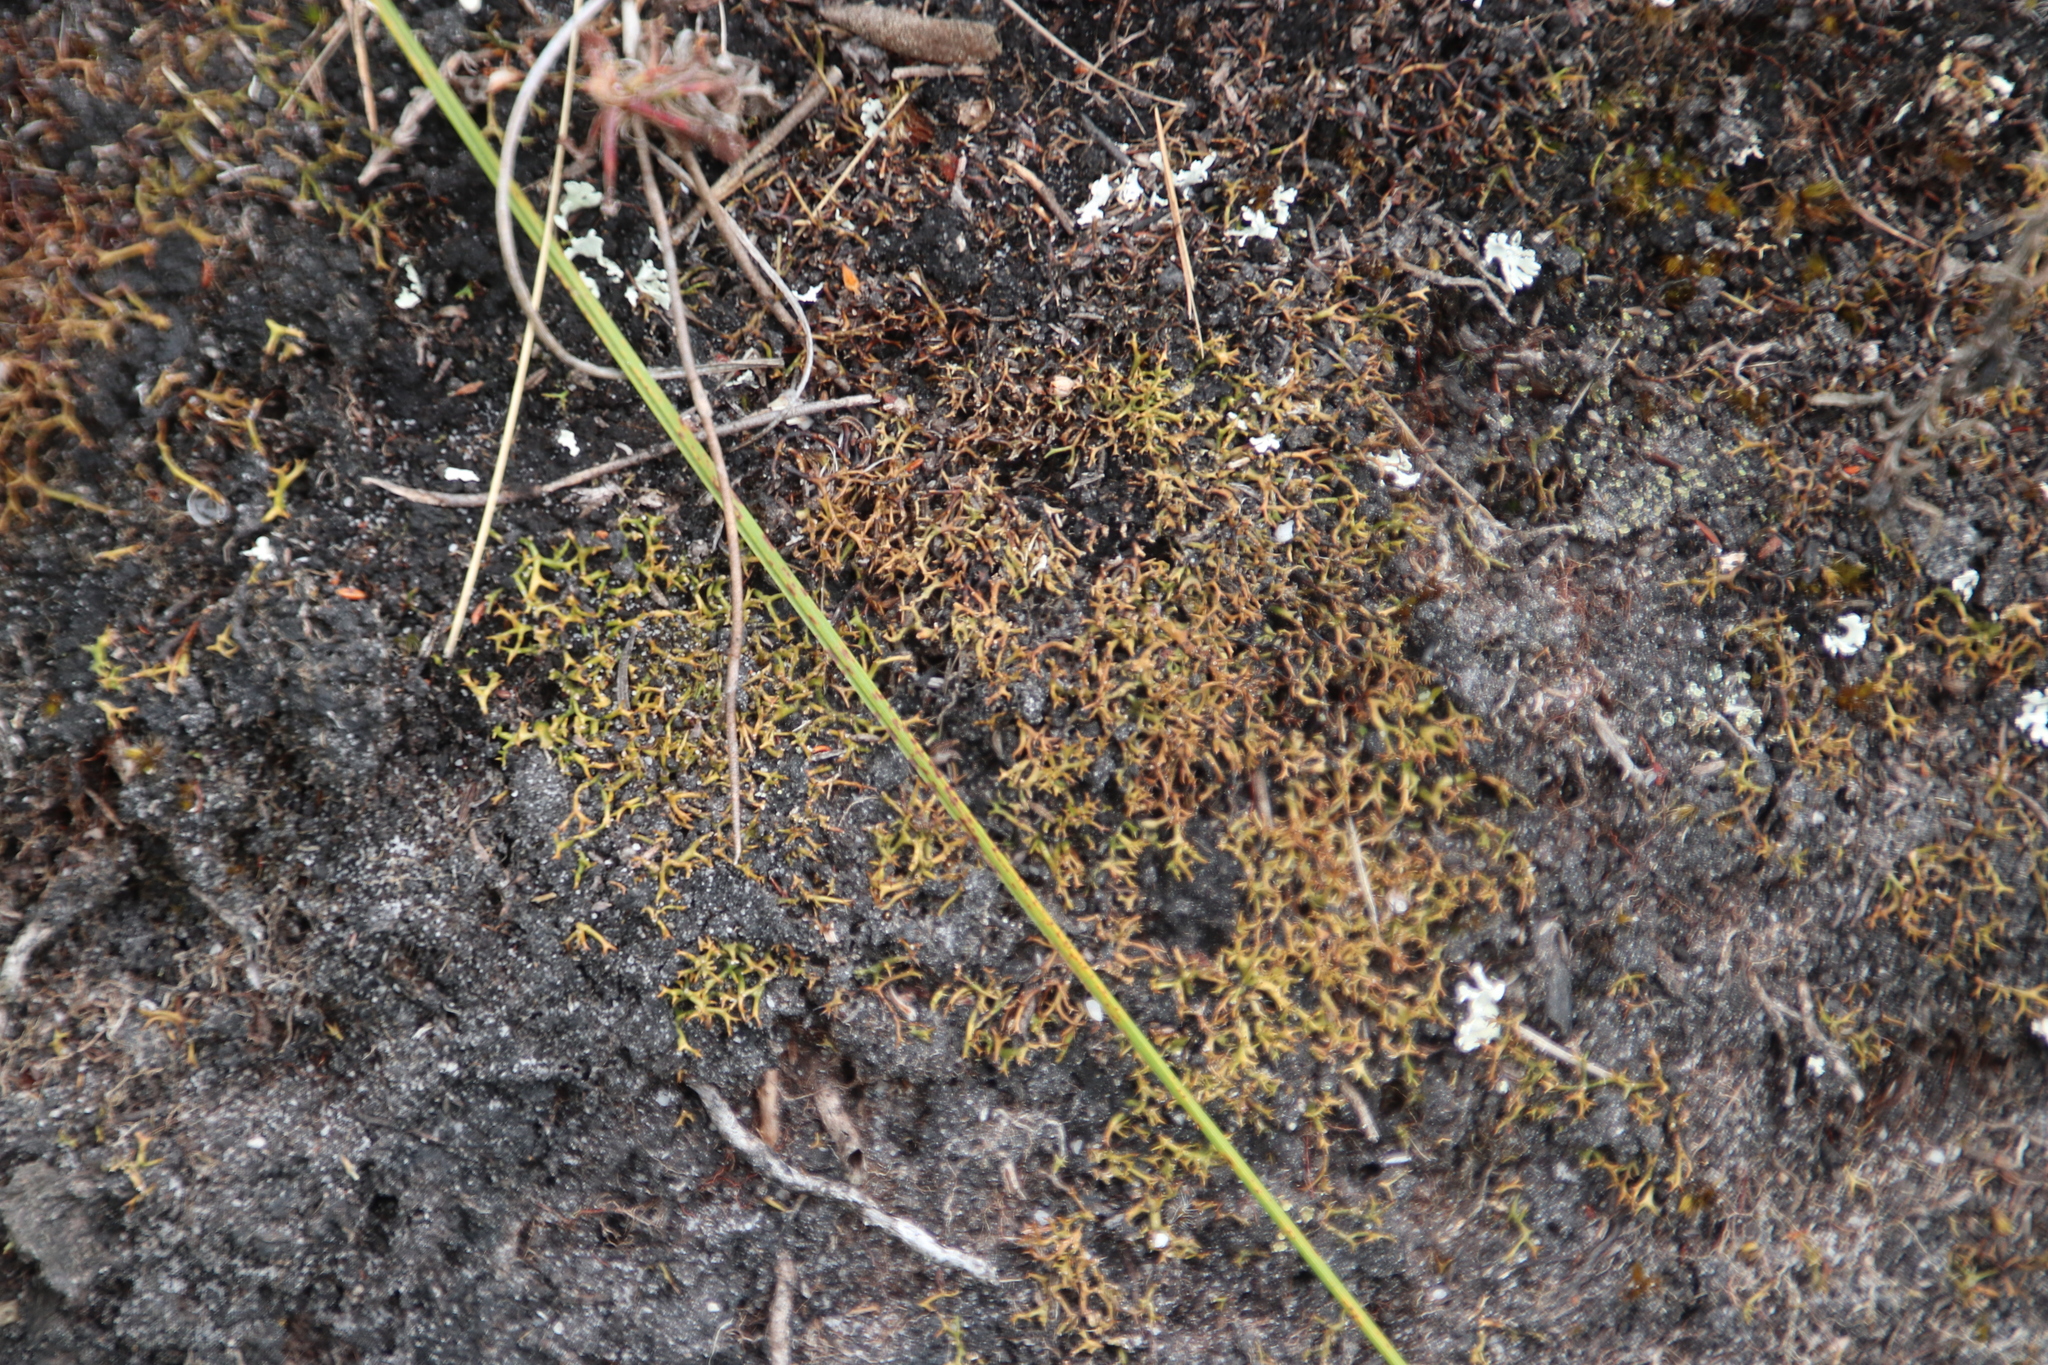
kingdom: Fungi
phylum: Ascomycota
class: Lecanoromycetes
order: Lecanorales
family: Cladoniaceae
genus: Cladia
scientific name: Cladia aggregata
